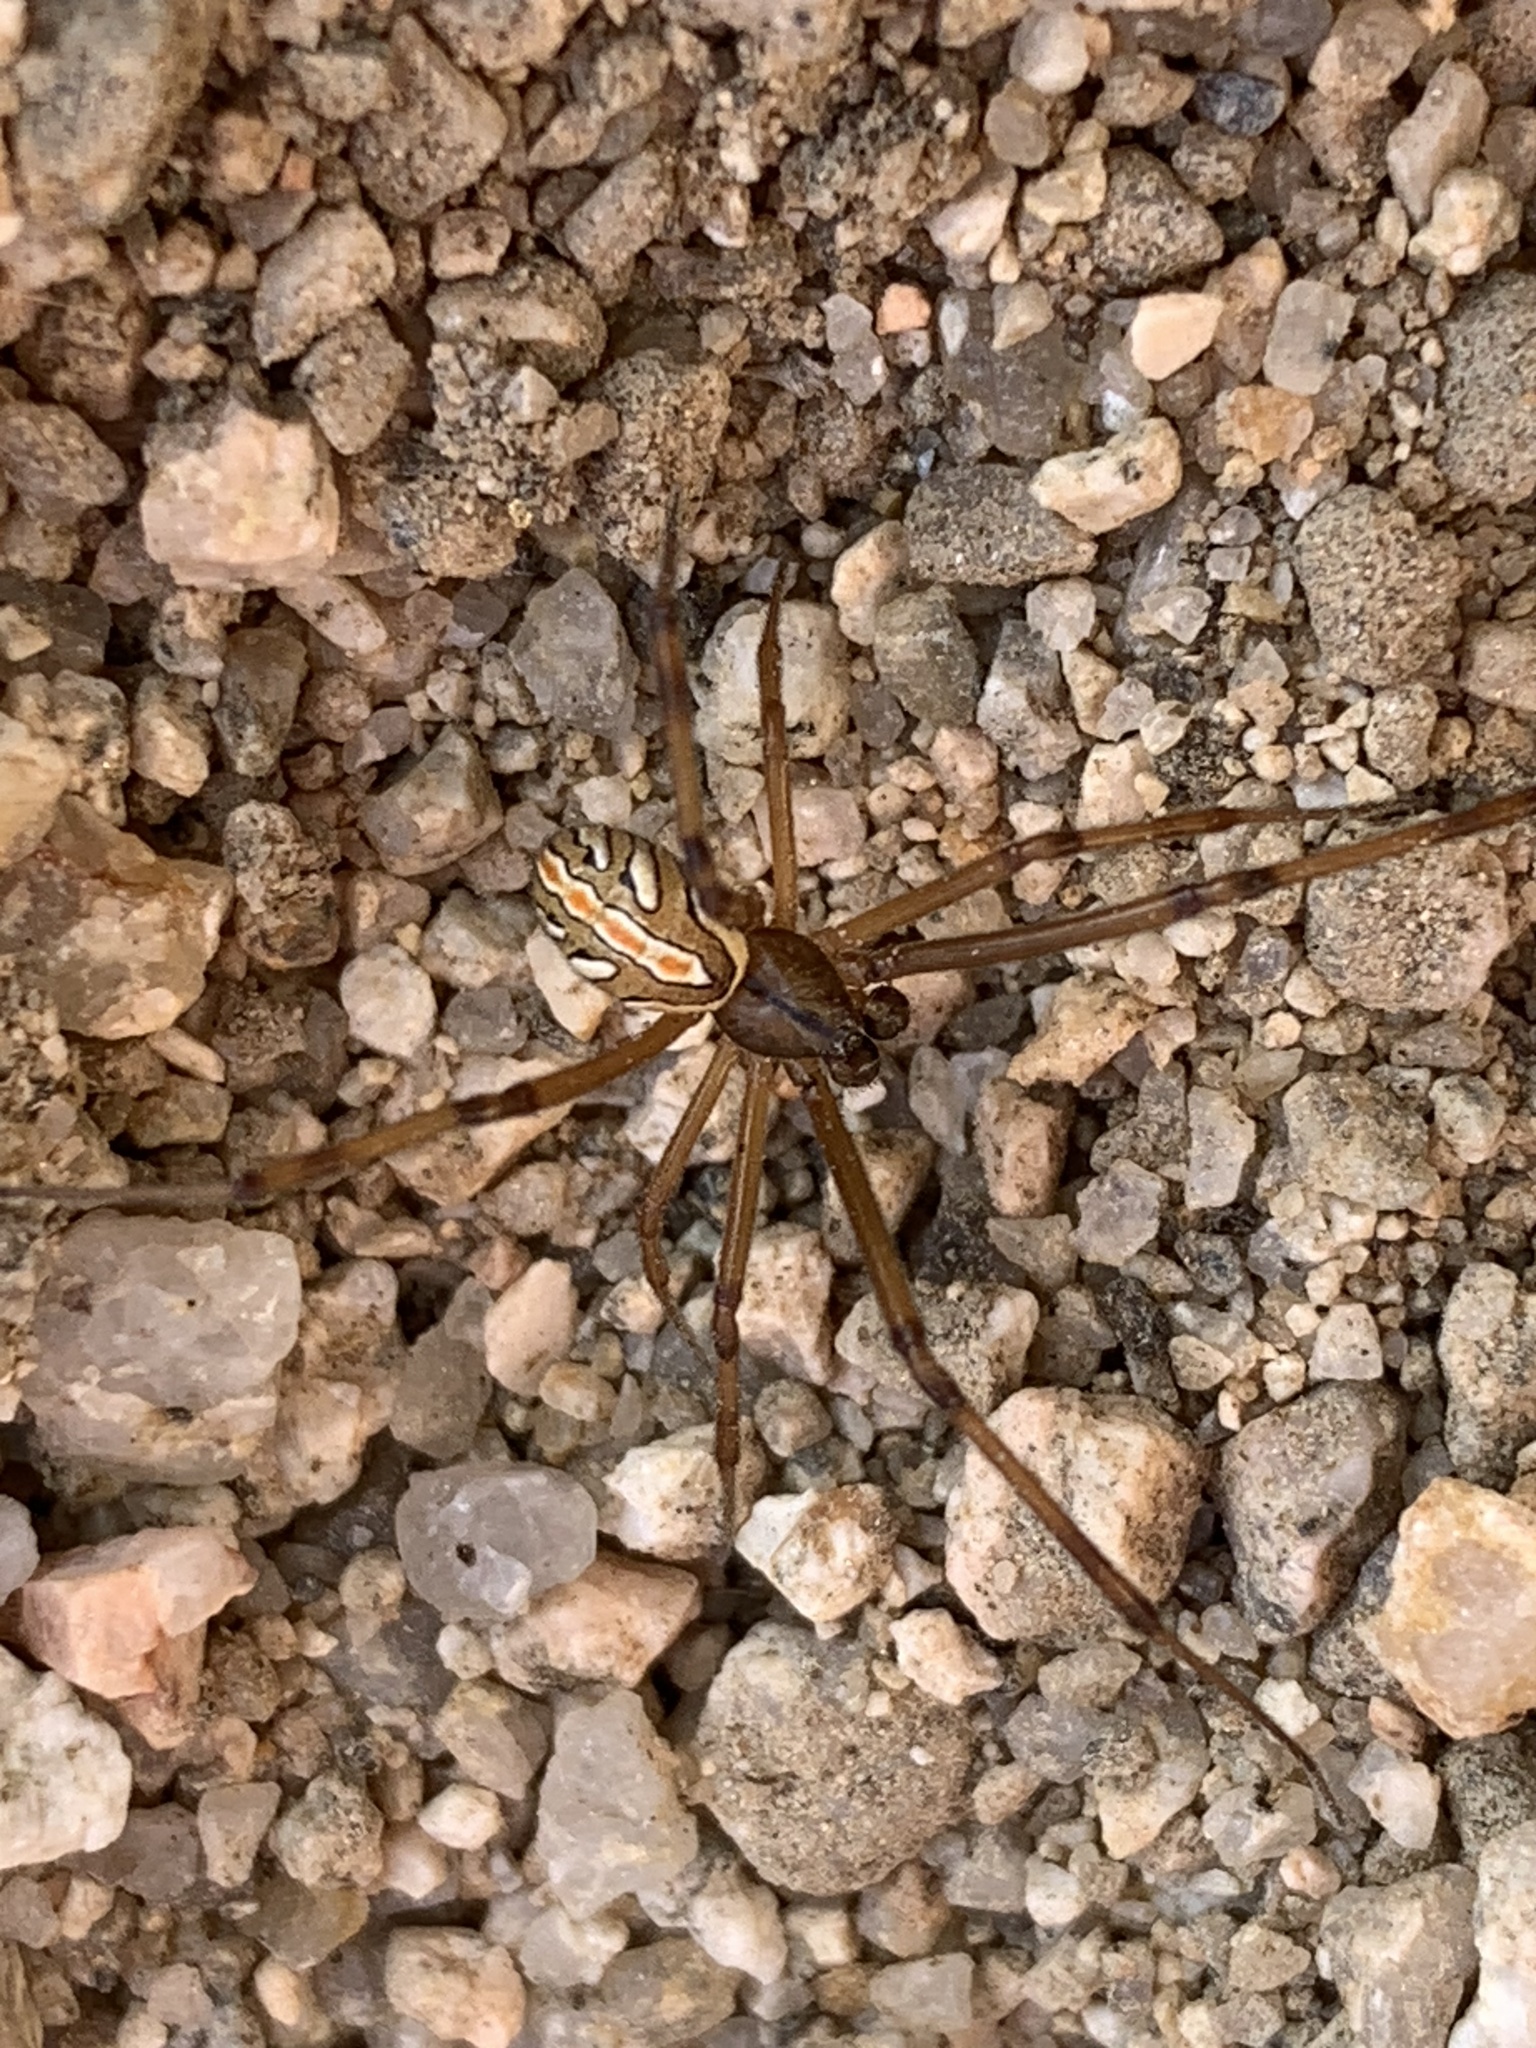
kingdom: Animalia
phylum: Arthropoda
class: Arachnida
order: Araneae
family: Theridiidae
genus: Latrodectus
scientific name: Latrodectus hesperus
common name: Western black widow
